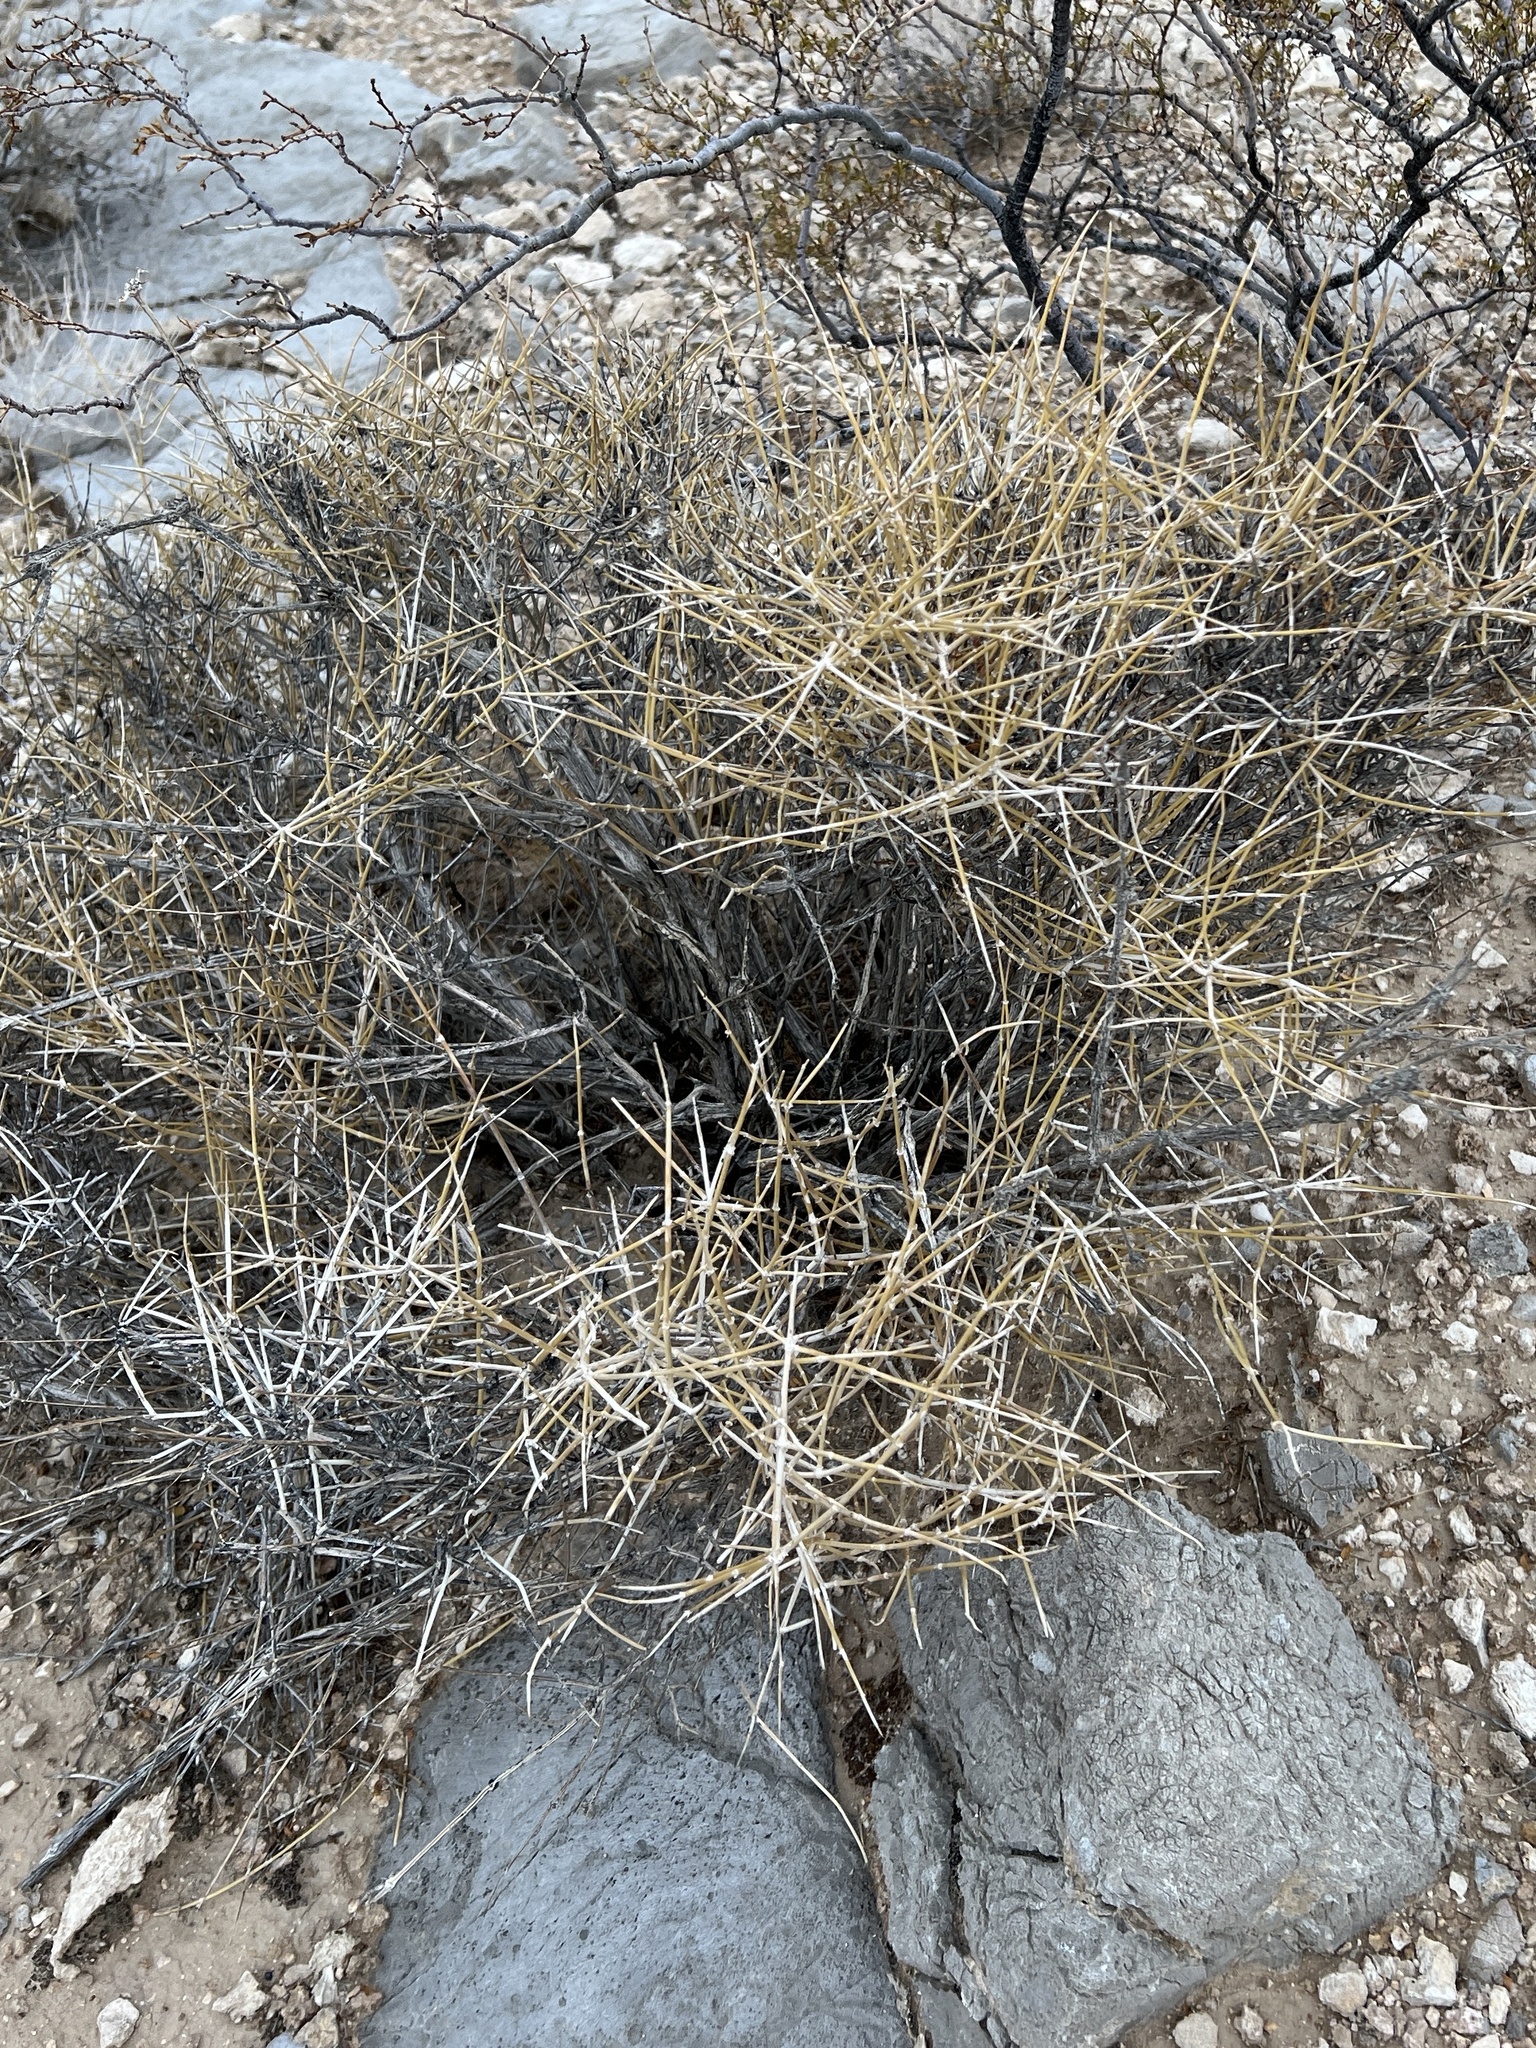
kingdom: Plantae
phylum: Tracheophyta
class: Gnetopsida
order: Ephedrales
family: Ephedraceae
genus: Ephedra
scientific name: Ephedra nevadensis
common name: Gray ephedra
